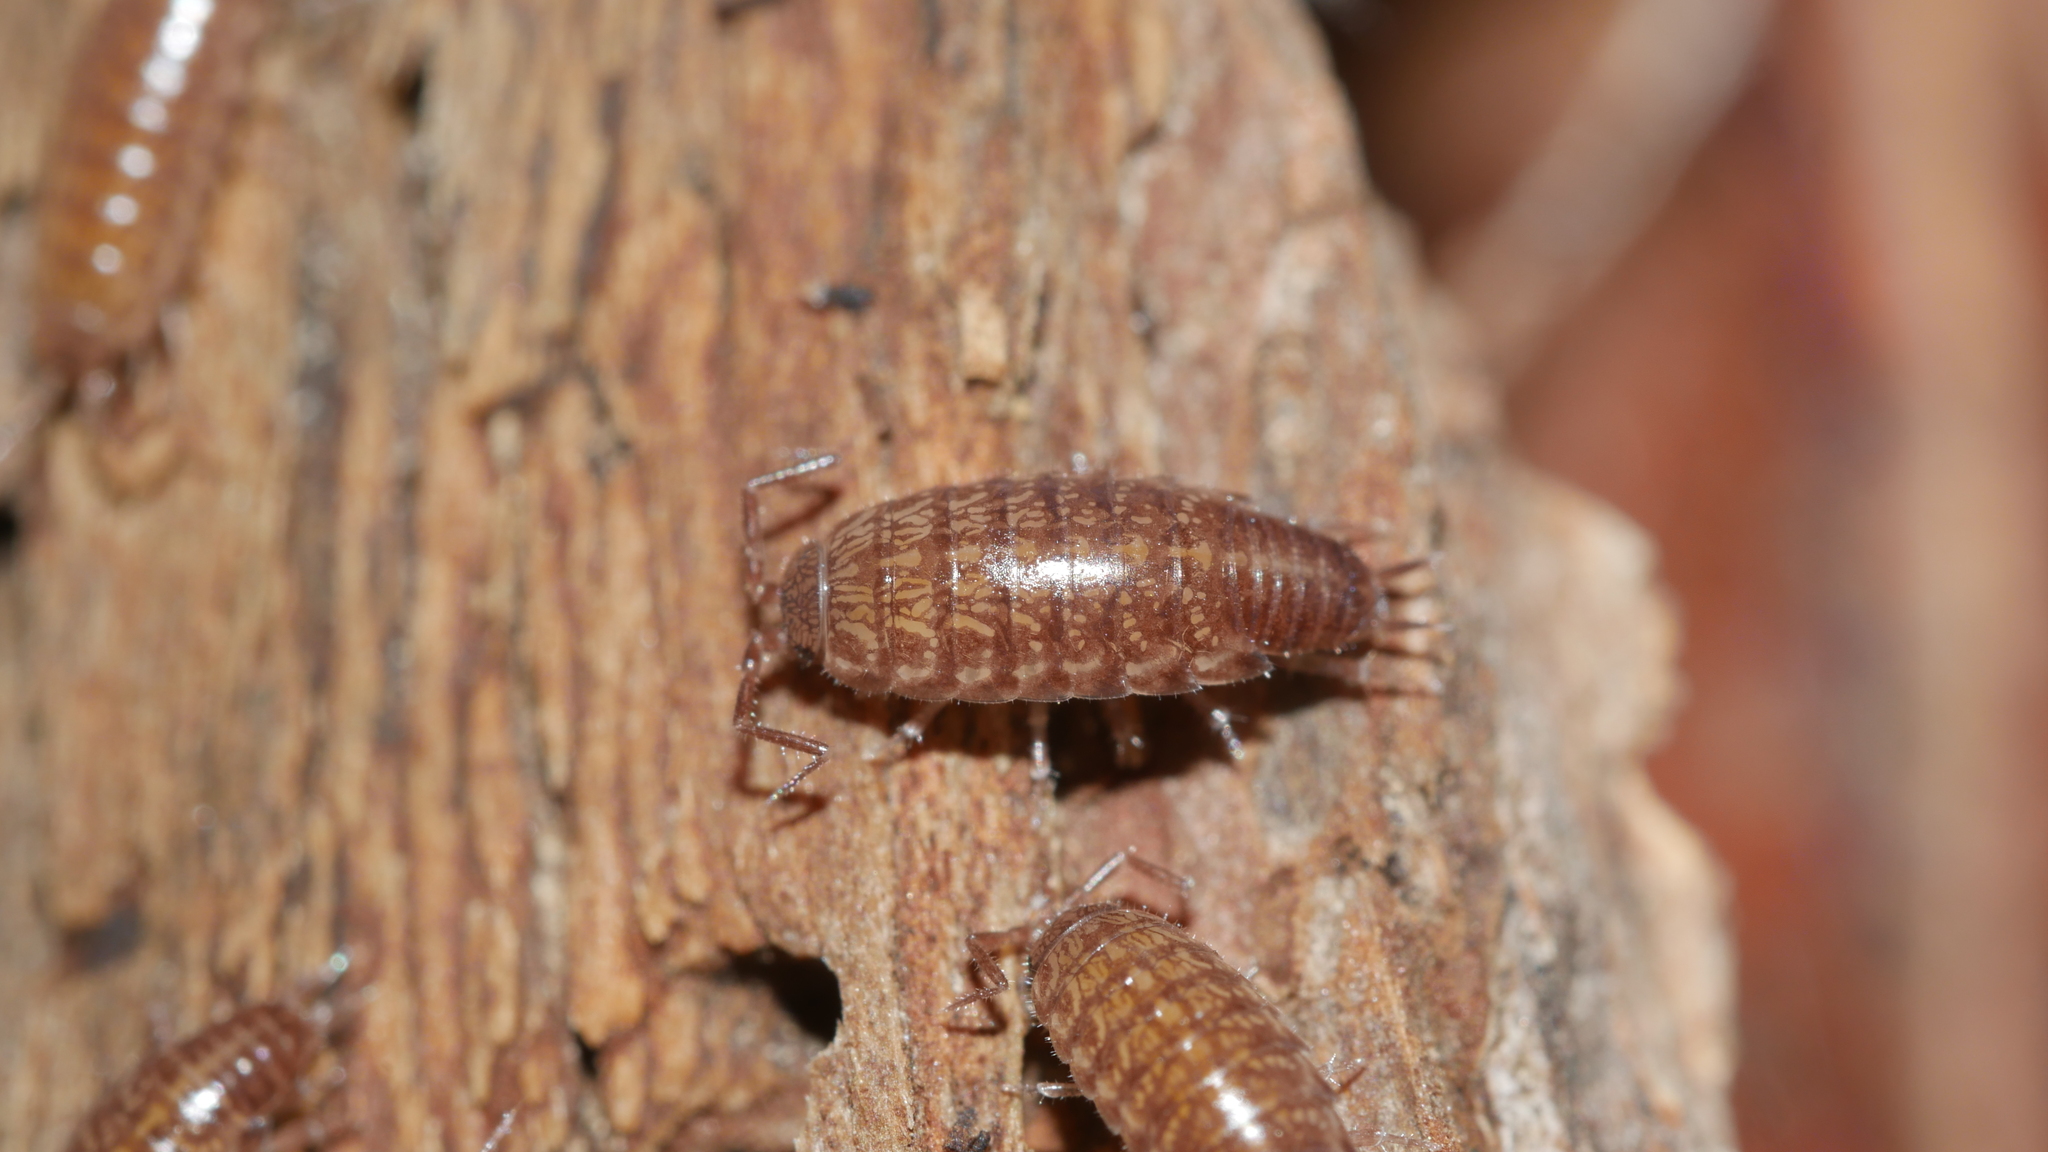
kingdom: Animalia
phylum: Arthropoda
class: Malacostraca
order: Isopoda
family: Philosciidae
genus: Chaetophiloscia
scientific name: Chaetophiloscia sicula
